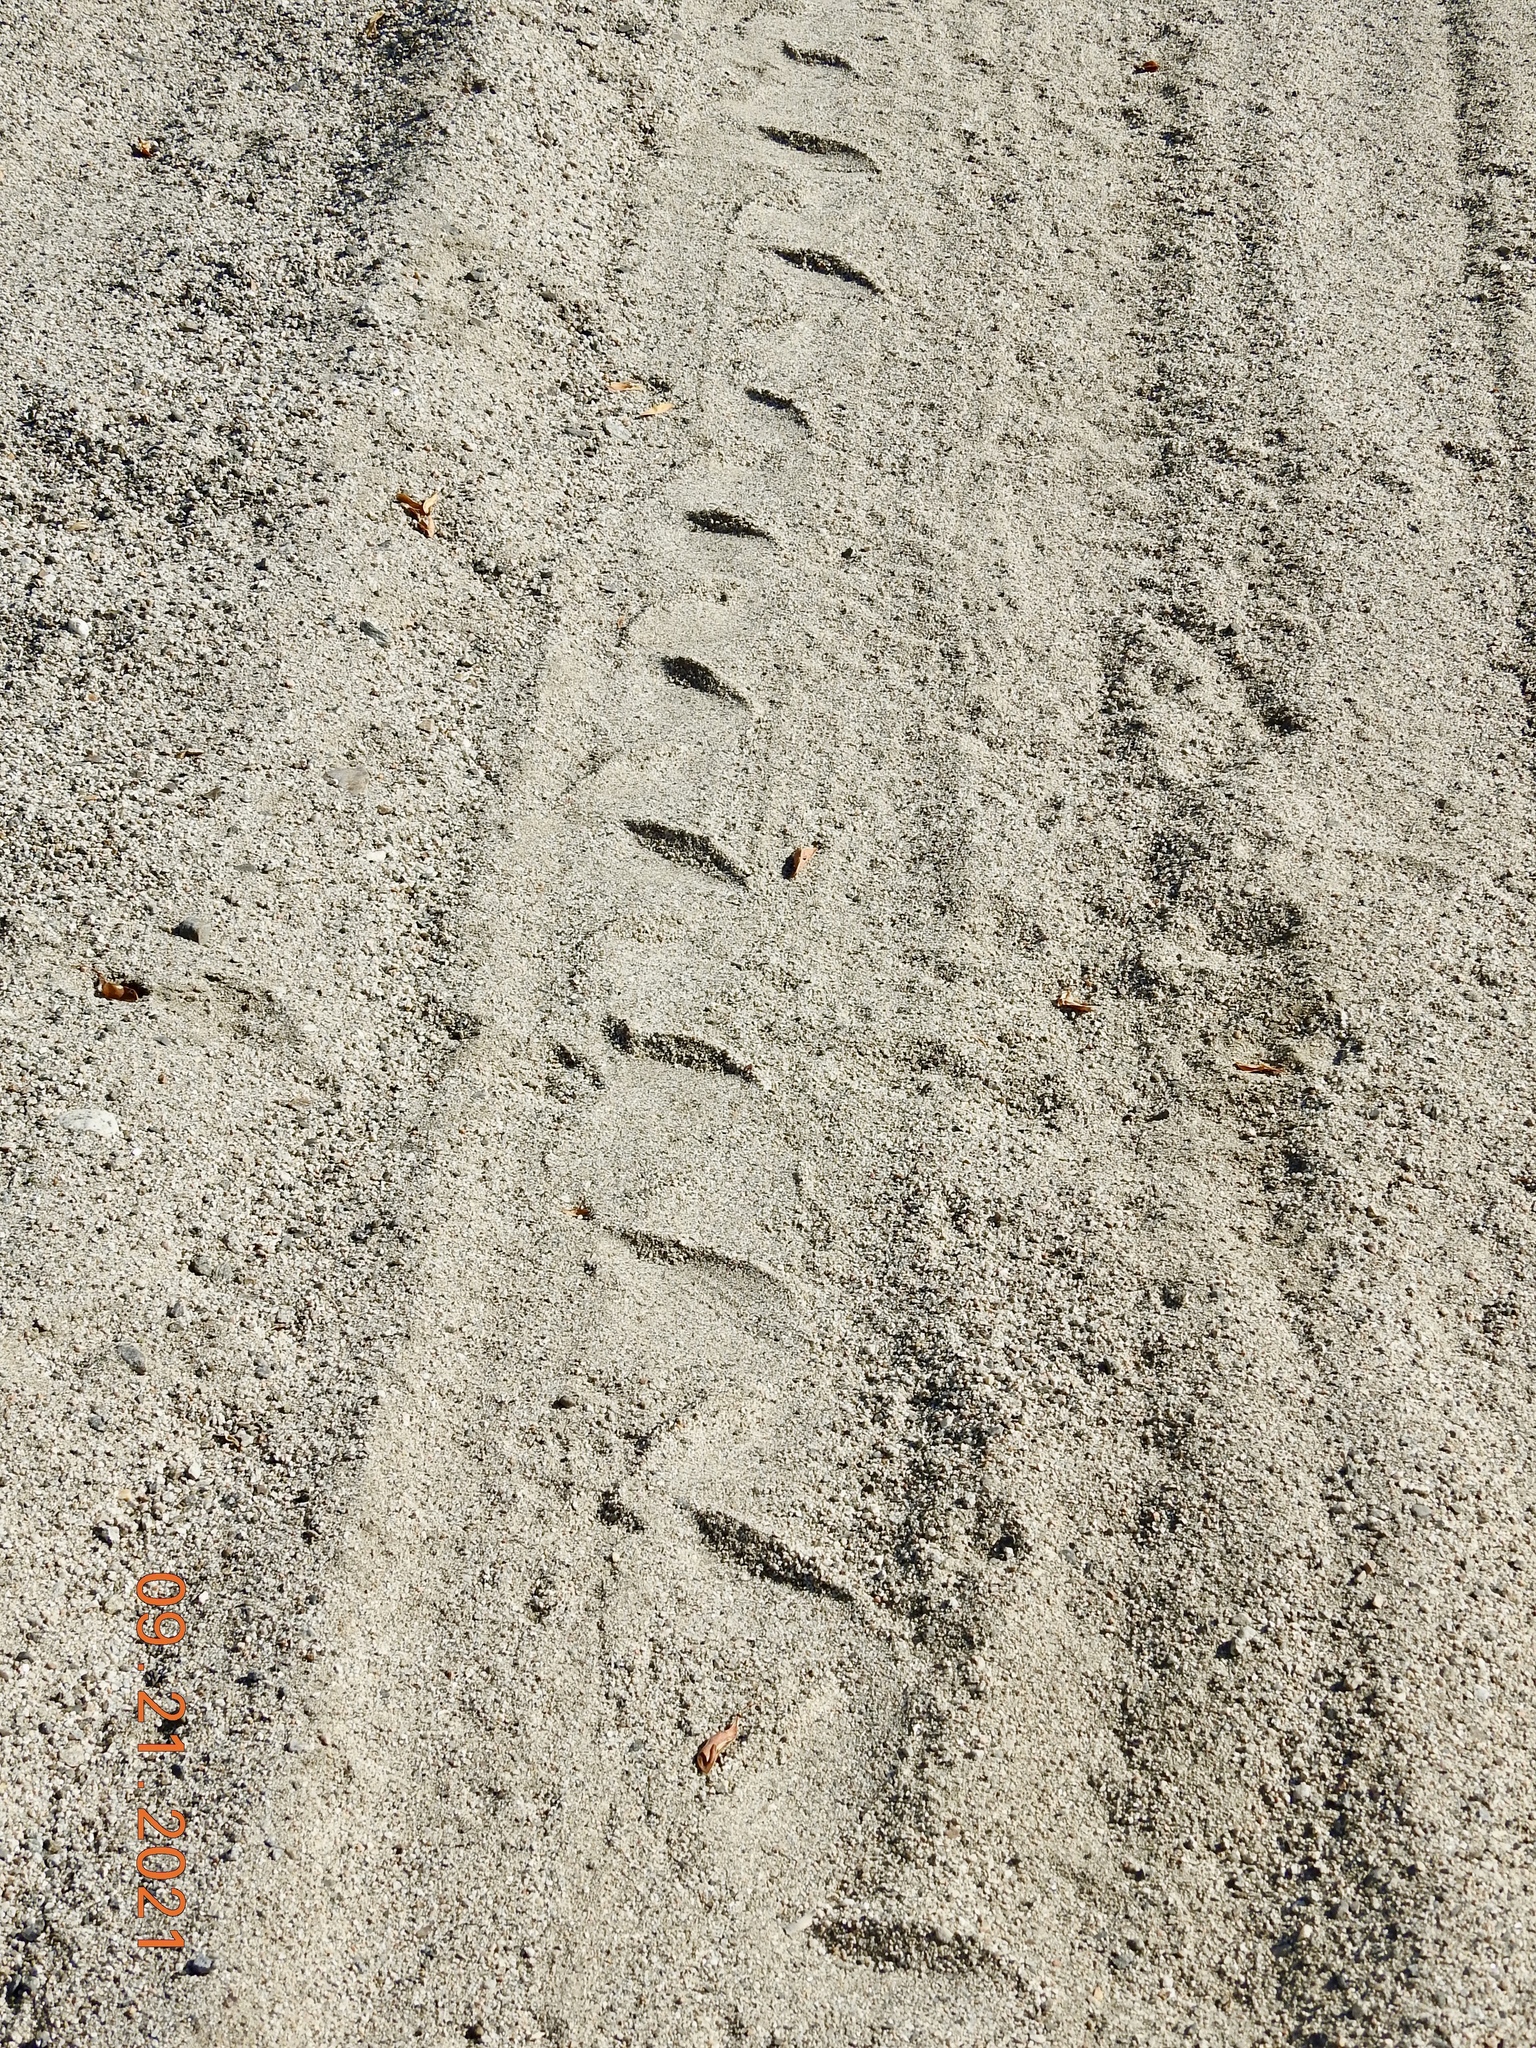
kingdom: Animalia
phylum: Chordata
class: Squamata
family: Viperidae
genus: Crotalus
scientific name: Crotalus cerastes
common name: Sidewinder
